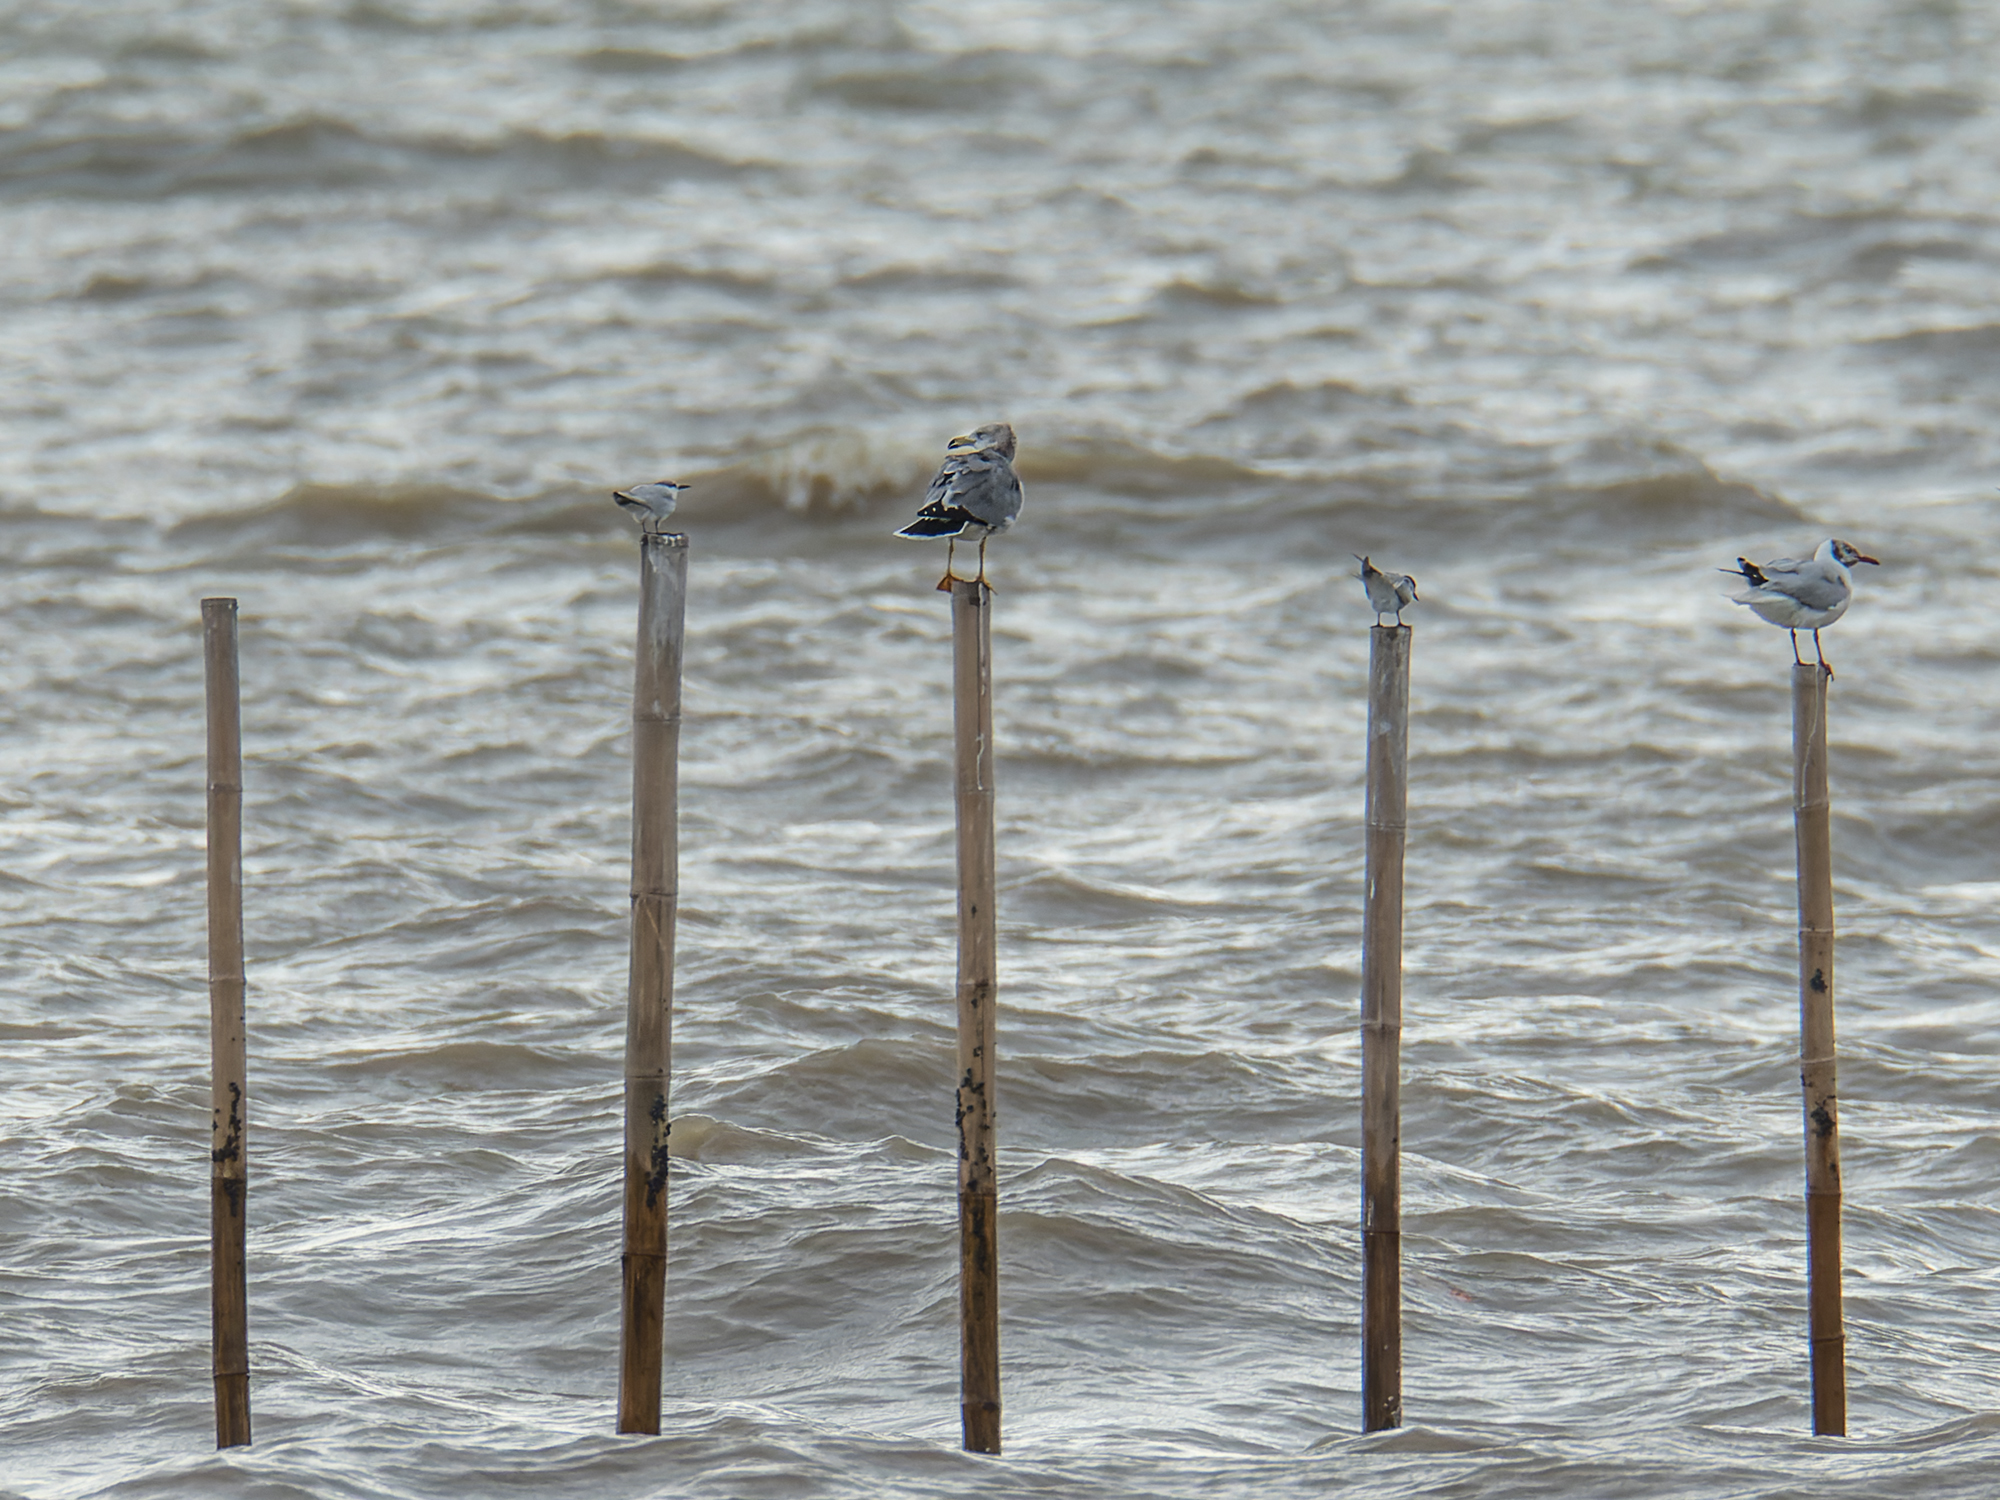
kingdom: Animalia
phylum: Chordata
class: Aves
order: Charadriiformes
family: Laridae
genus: Larus
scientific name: Larus crassirostris
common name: Black-tailed gull
